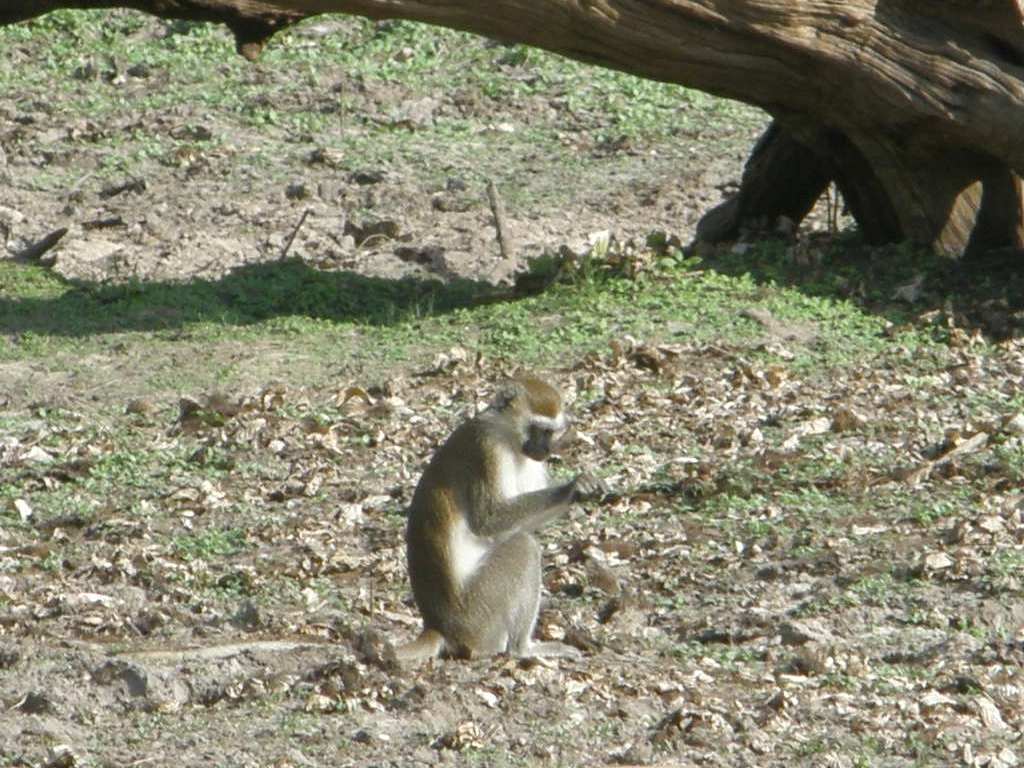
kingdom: Animalia
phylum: Chordata
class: Mammalia
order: Primates
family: Cercopithecidae
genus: Chlorocebus
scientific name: Chlorocebus pygerythrus
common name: Vervet monkey
